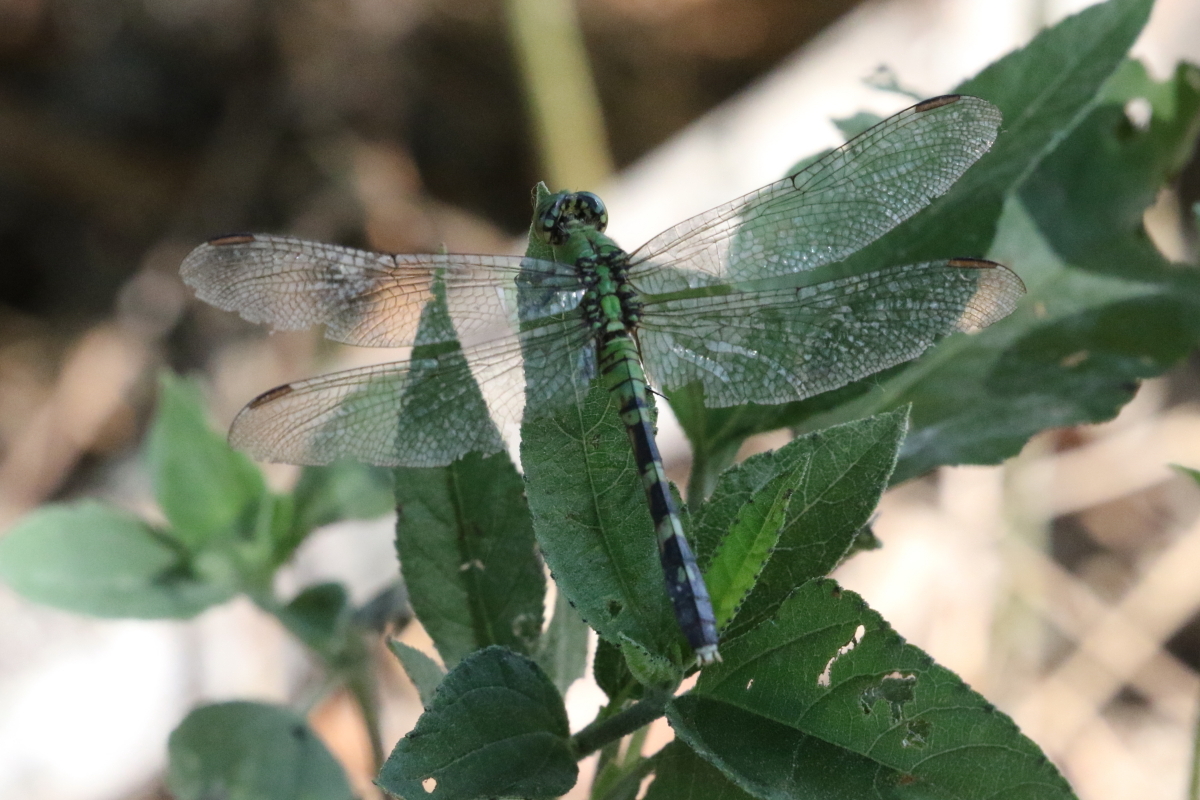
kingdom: Animalia
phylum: Arthropoda
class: Insecta
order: Odonata
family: Libellulidae
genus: Erythemis
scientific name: Erythemis simplicicollis
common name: Eastern pondhawk
